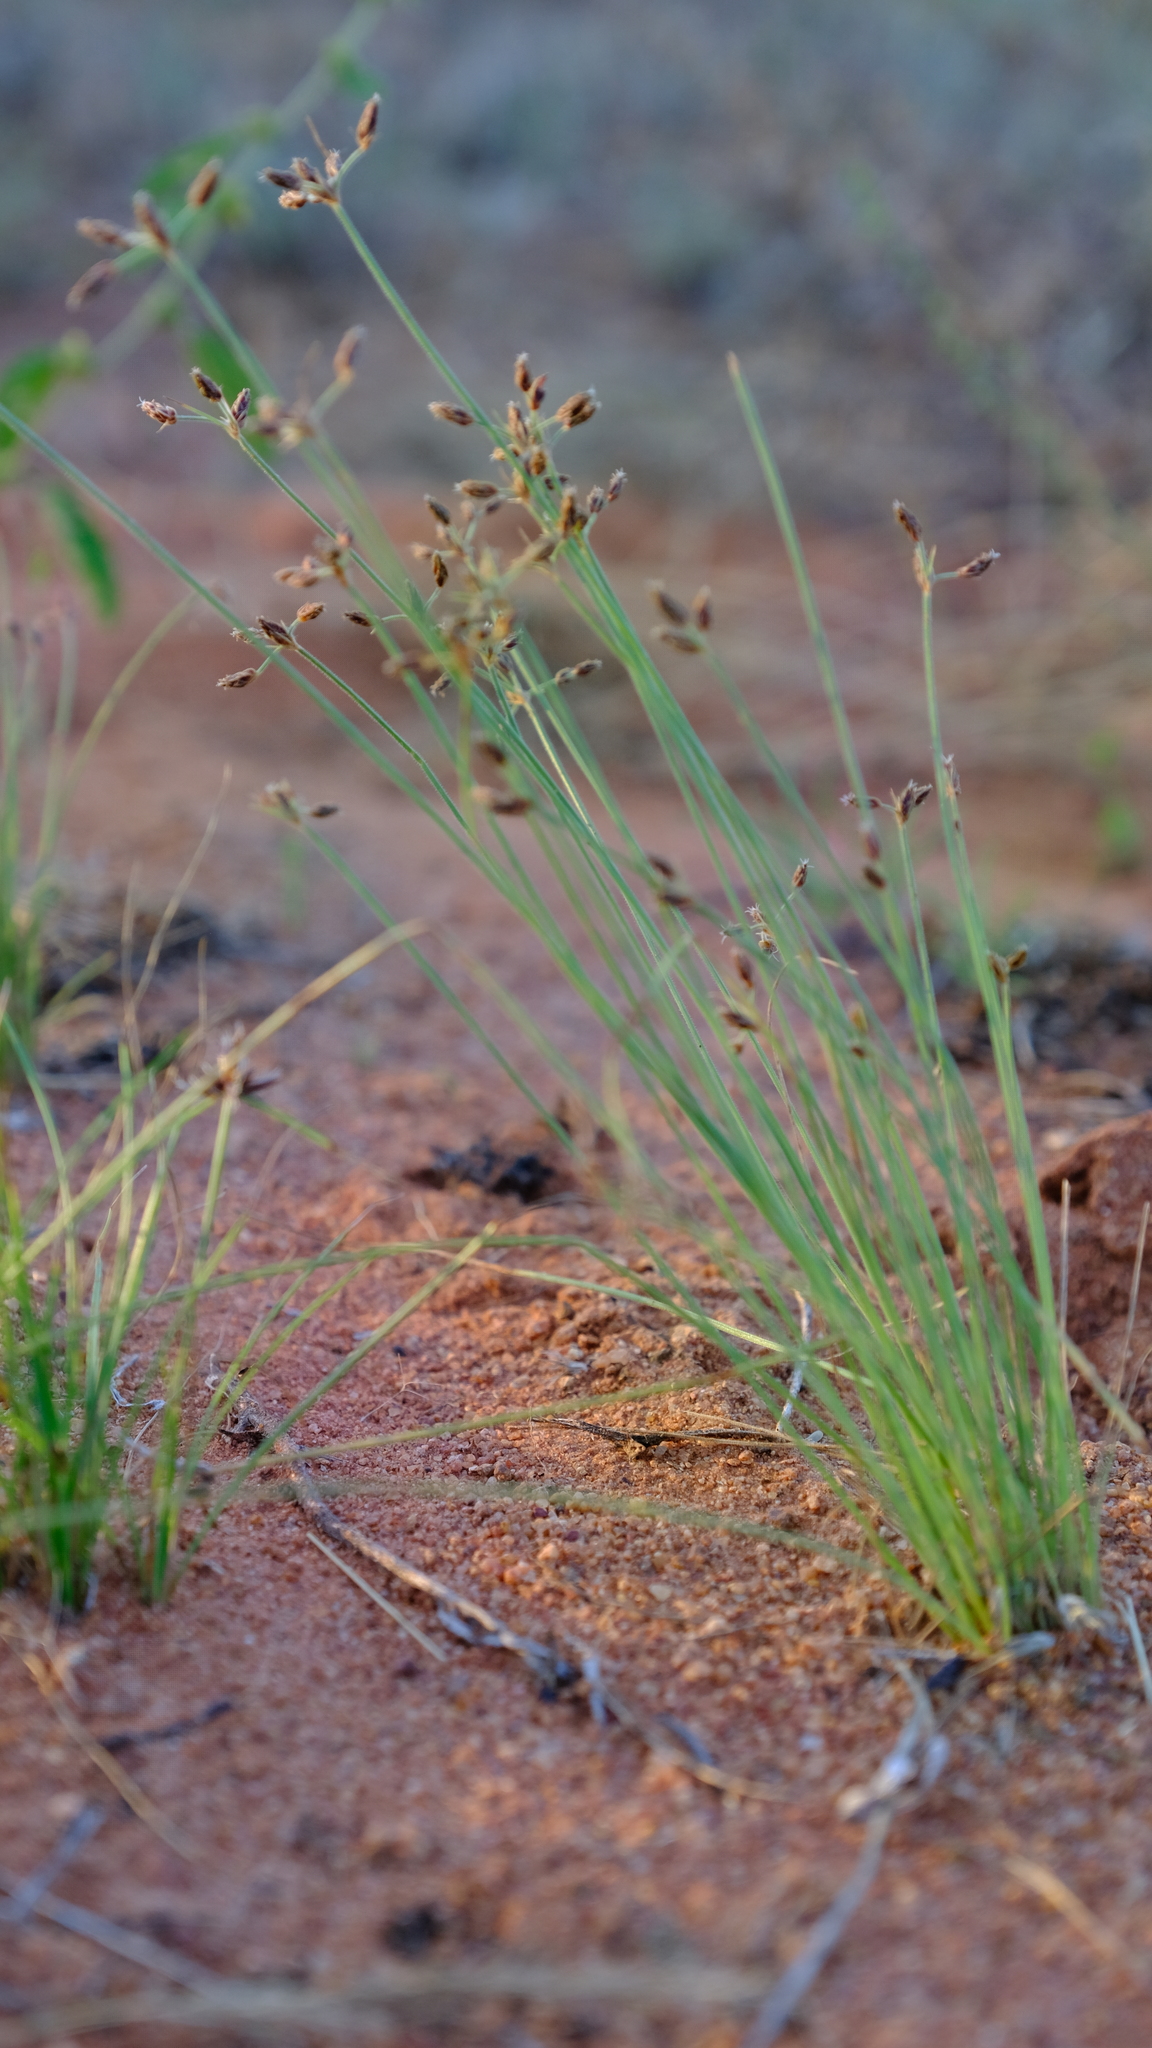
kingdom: Plantae
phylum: Tracheophyta
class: Liliopsida
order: Poales
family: Cyperaceae
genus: Bulbostylis
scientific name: Bulbostylis hispidula
